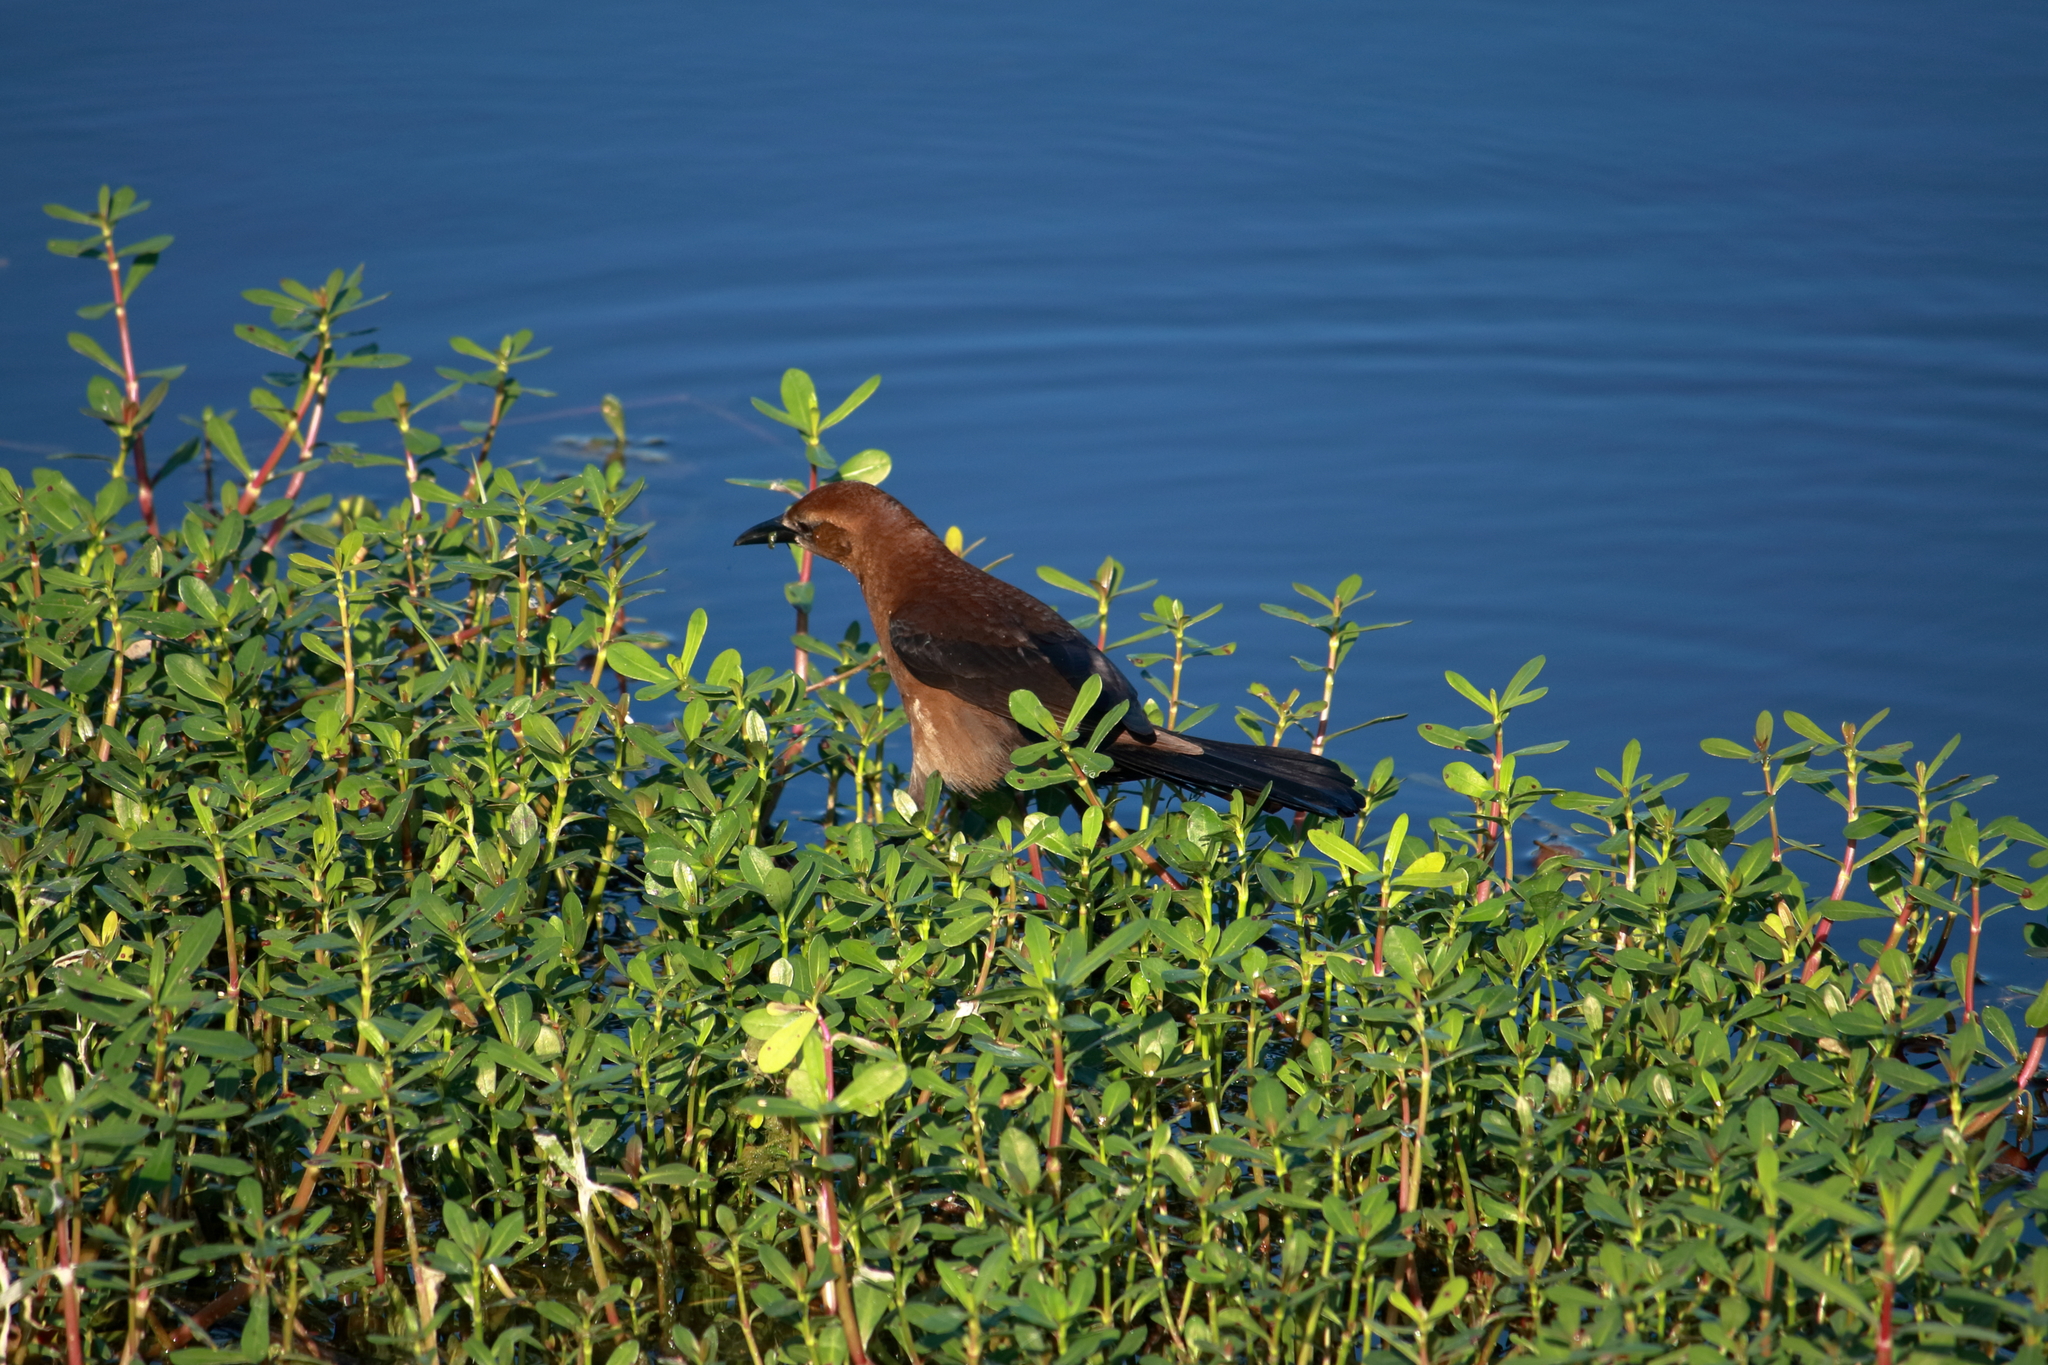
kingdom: Animalia
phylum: Chordata
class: Aves
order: Passeriformes
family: Icteridae
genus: Quiscalus
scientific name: Quiscalus major
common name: Boat-tailed grackle
